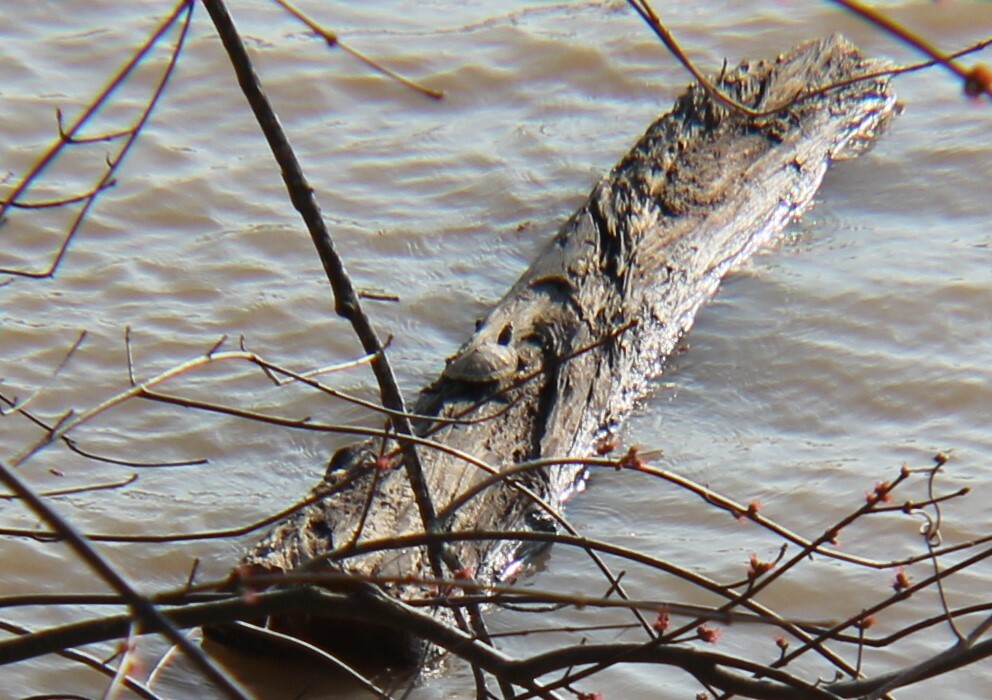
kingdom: Animalia
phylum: Chordata
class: Testudines
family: Emydidae
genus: Graptemys
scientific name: Graptemys geographica
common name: Common map turtle
